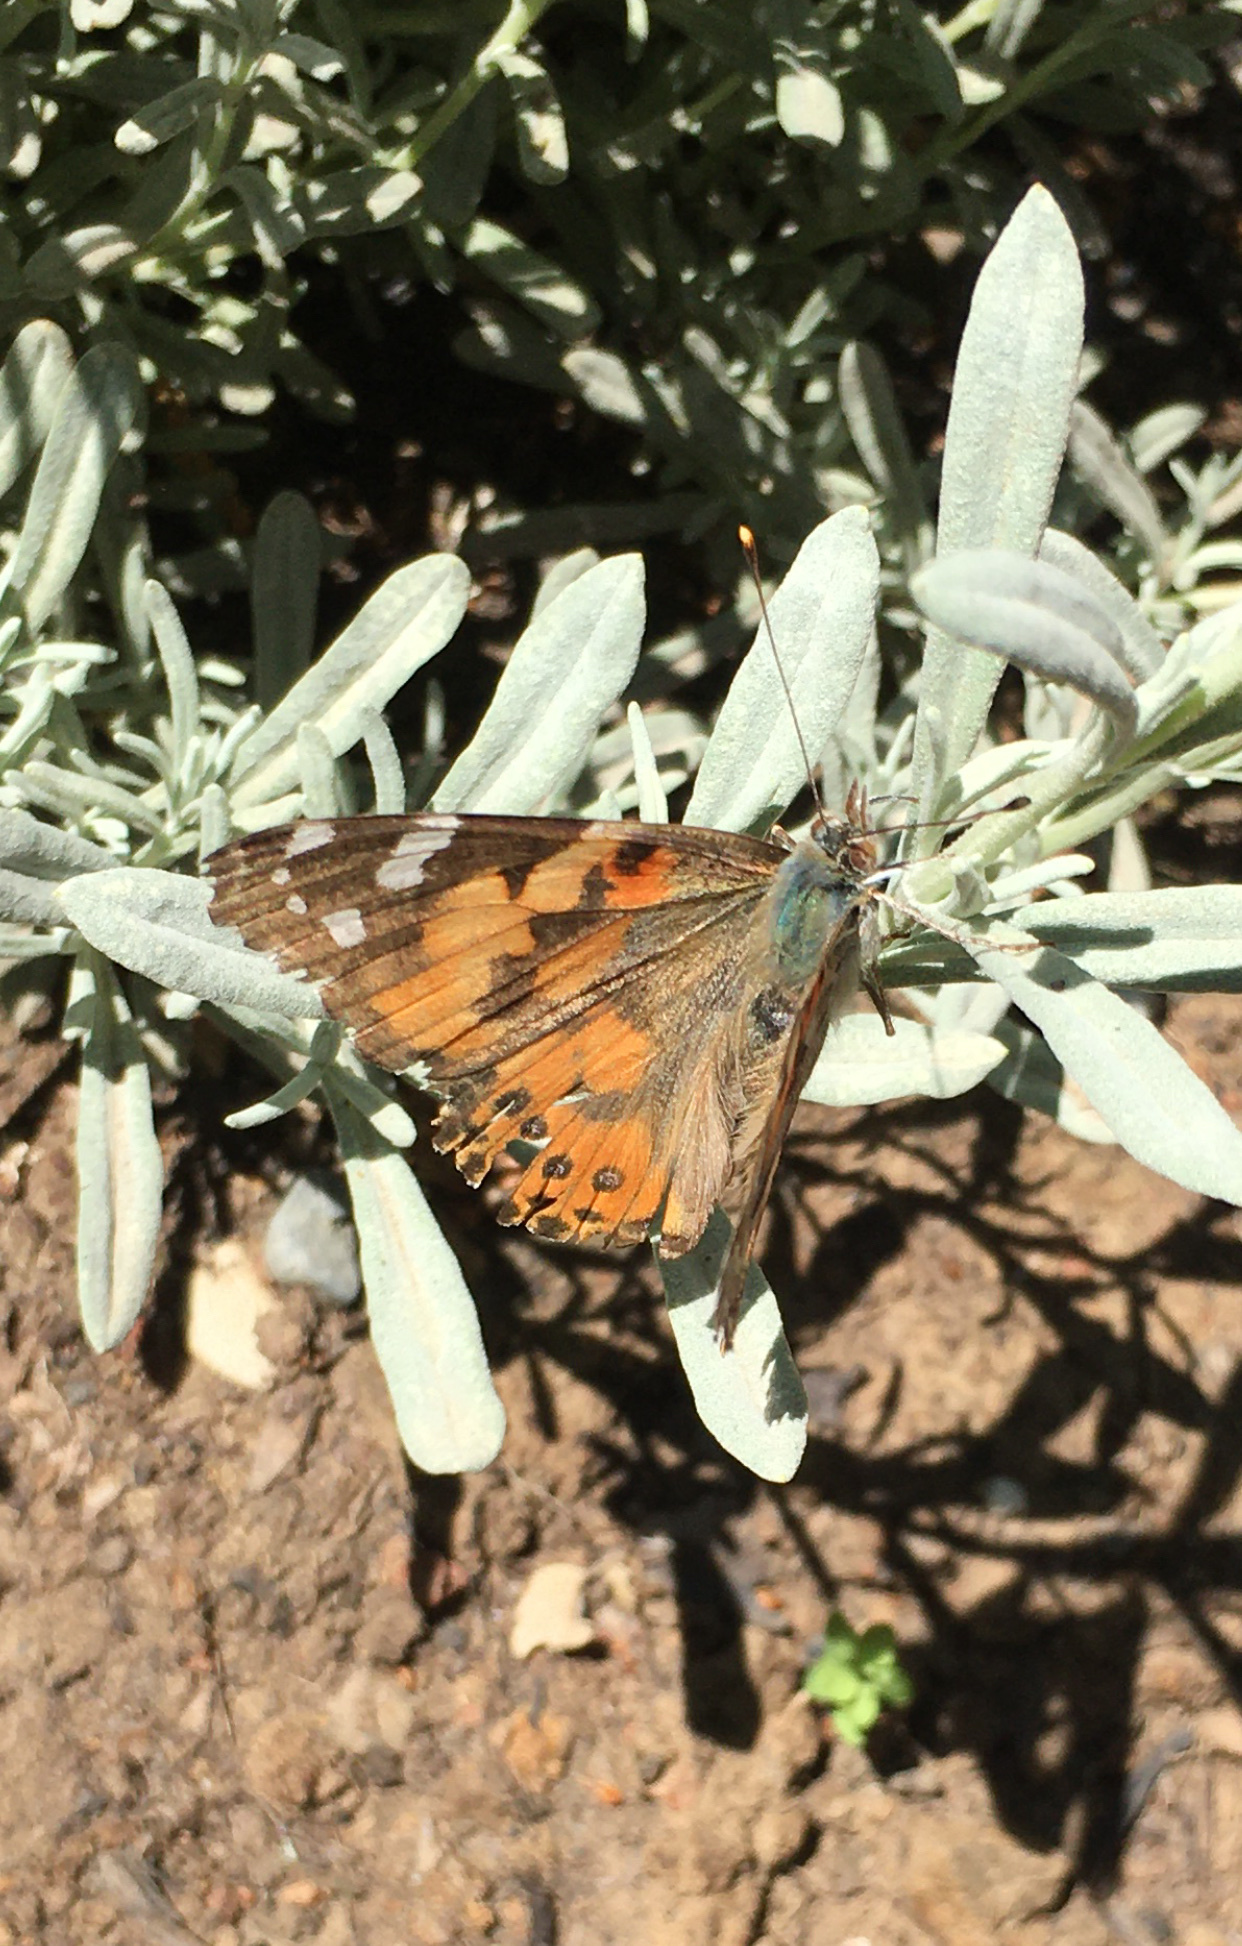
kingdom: Animalia
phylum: Arthropoda
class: Insecta
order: Lepidoptera
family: Nymphalidae
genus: Vanessa
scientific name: Vanessa cardui
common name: Painted lady
